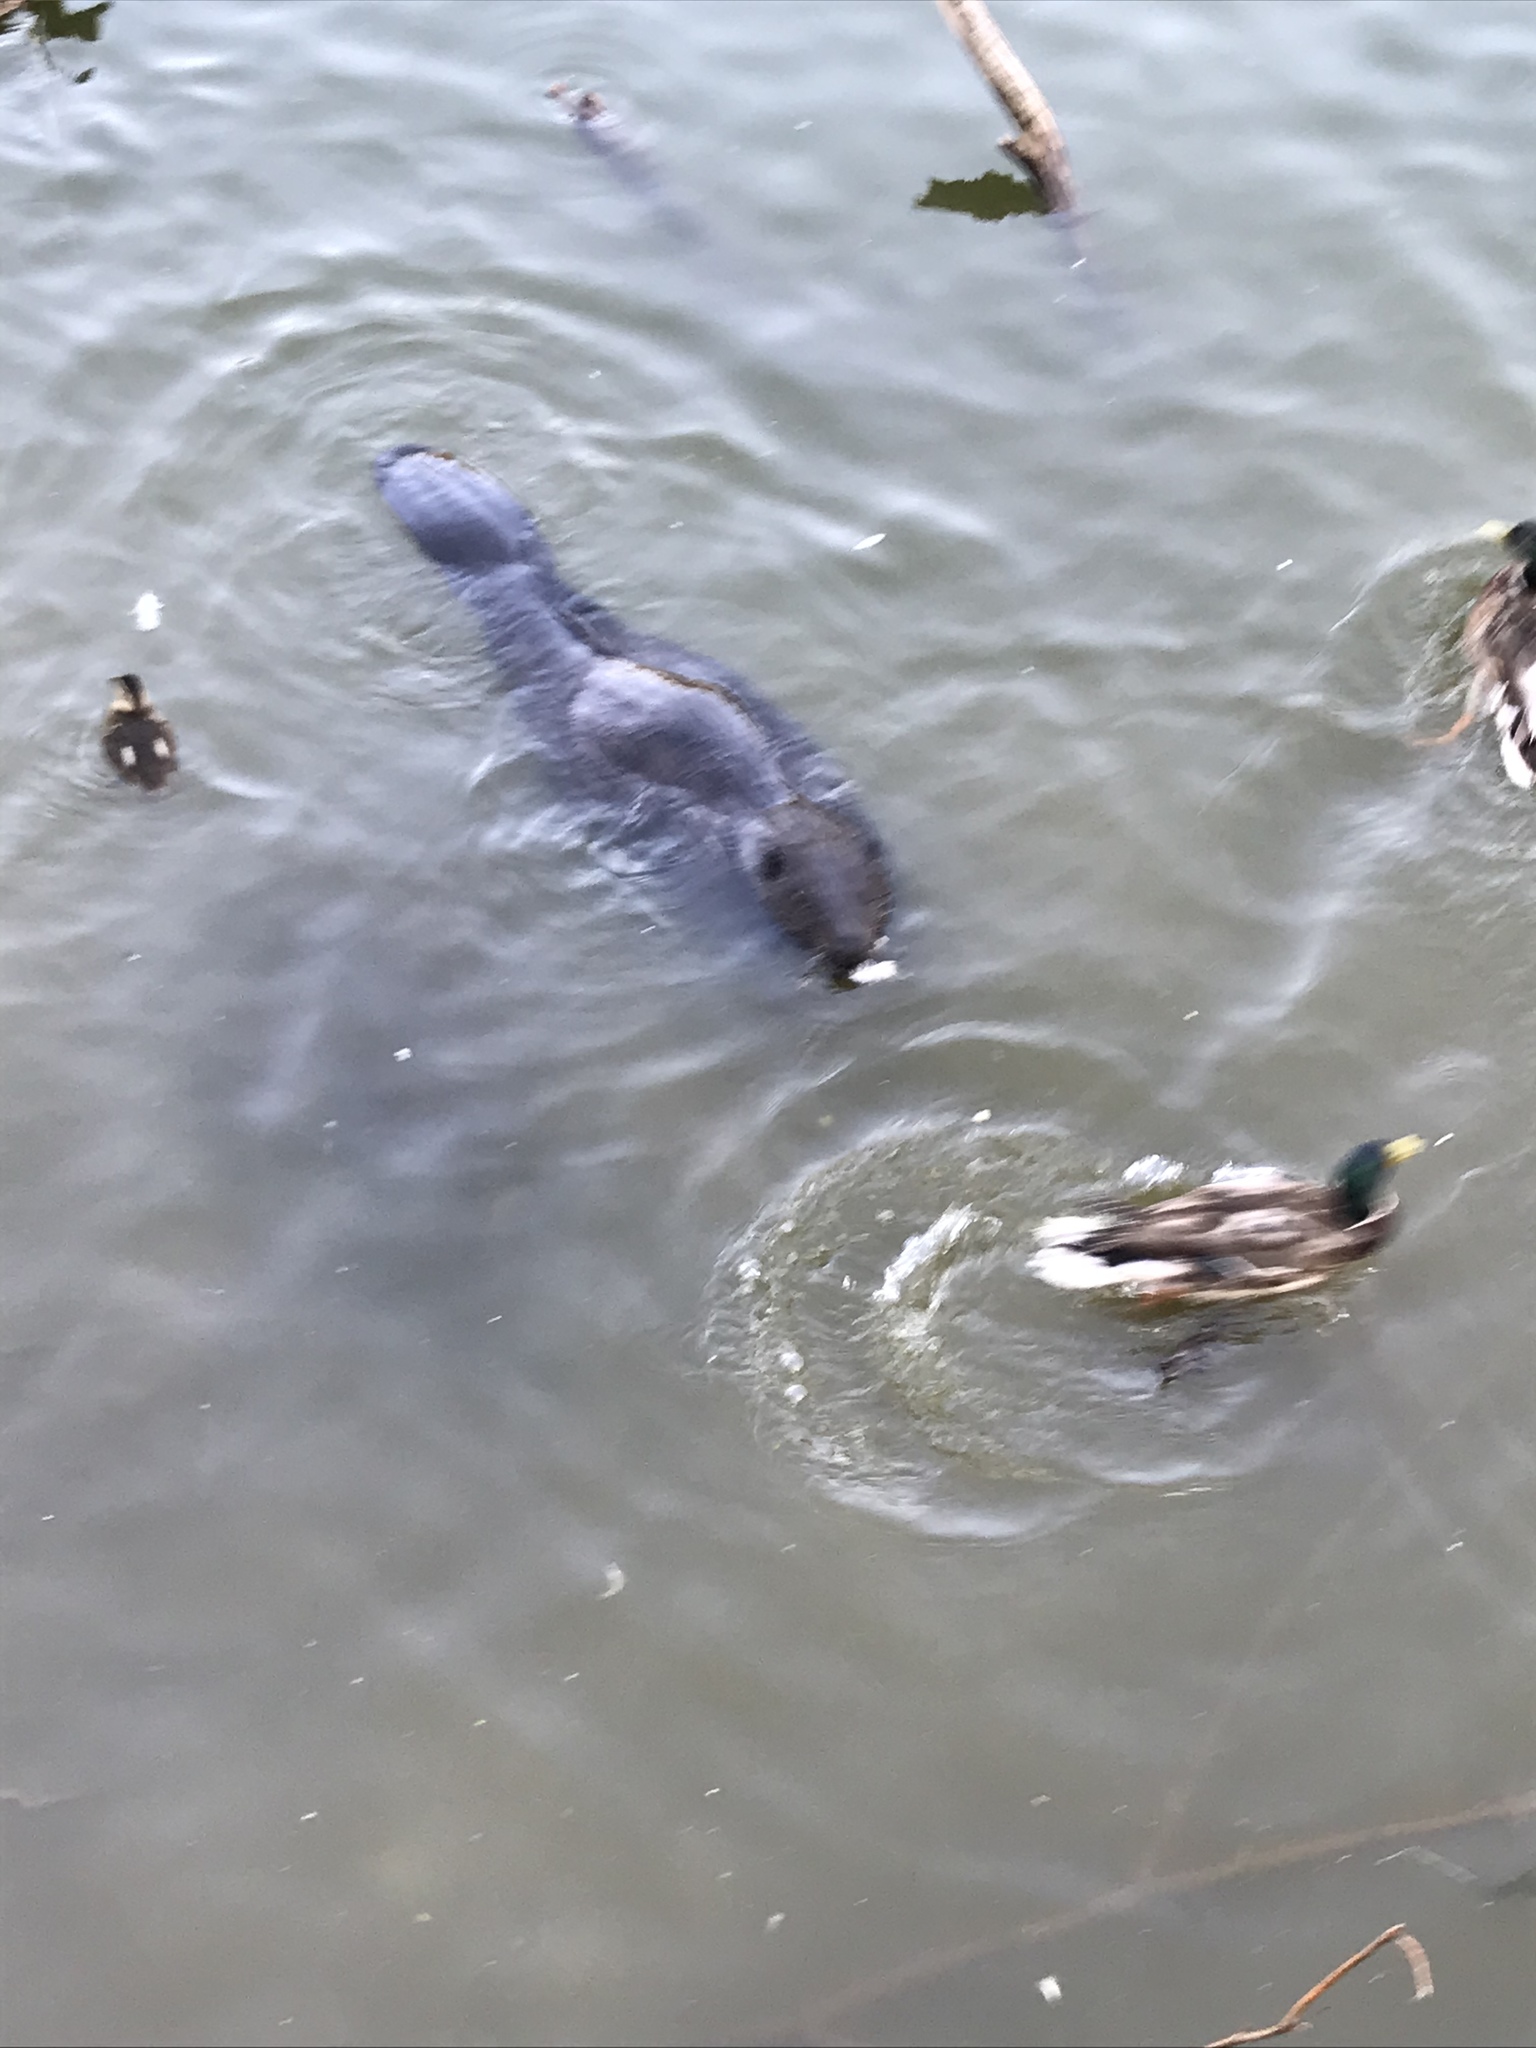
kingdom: Animalia
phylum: Chordata
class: Mammalia
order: Rodentia
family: Castoridae
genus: Castor
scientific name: Castor fiber
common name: Eurasian beaver
